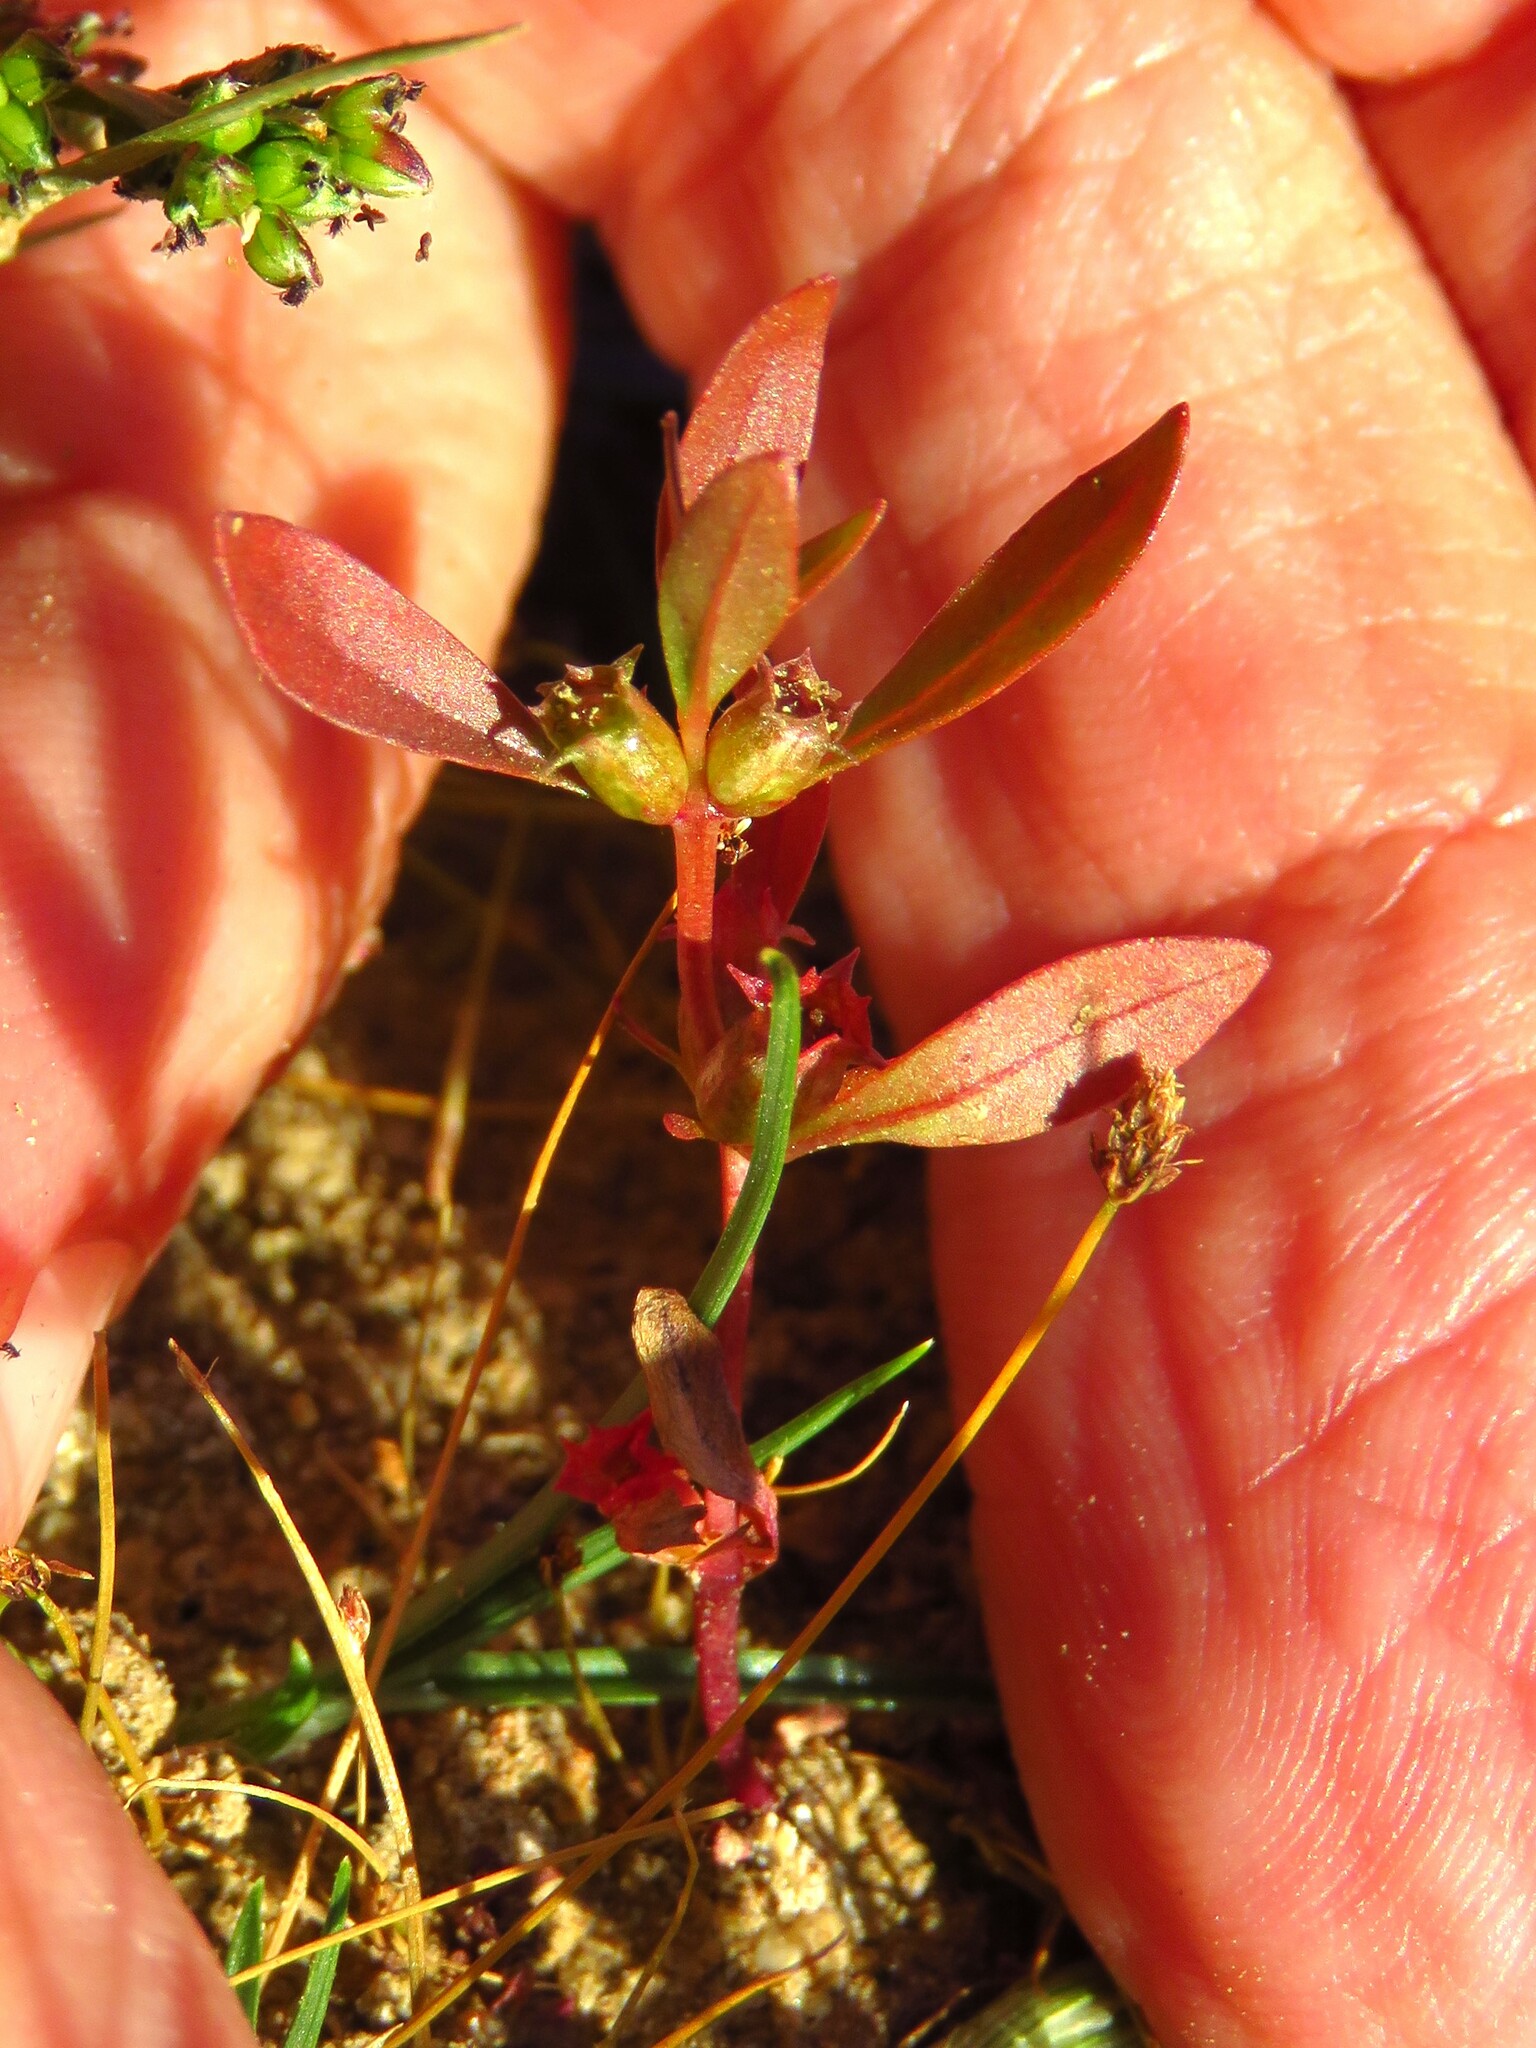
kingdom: Plantae
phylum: Tracheophyta
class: Magnoliopsida
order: Myrtales
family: Lythraceae
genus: Ammannia
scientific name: Ammannia coccinea
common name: Valley redstem
